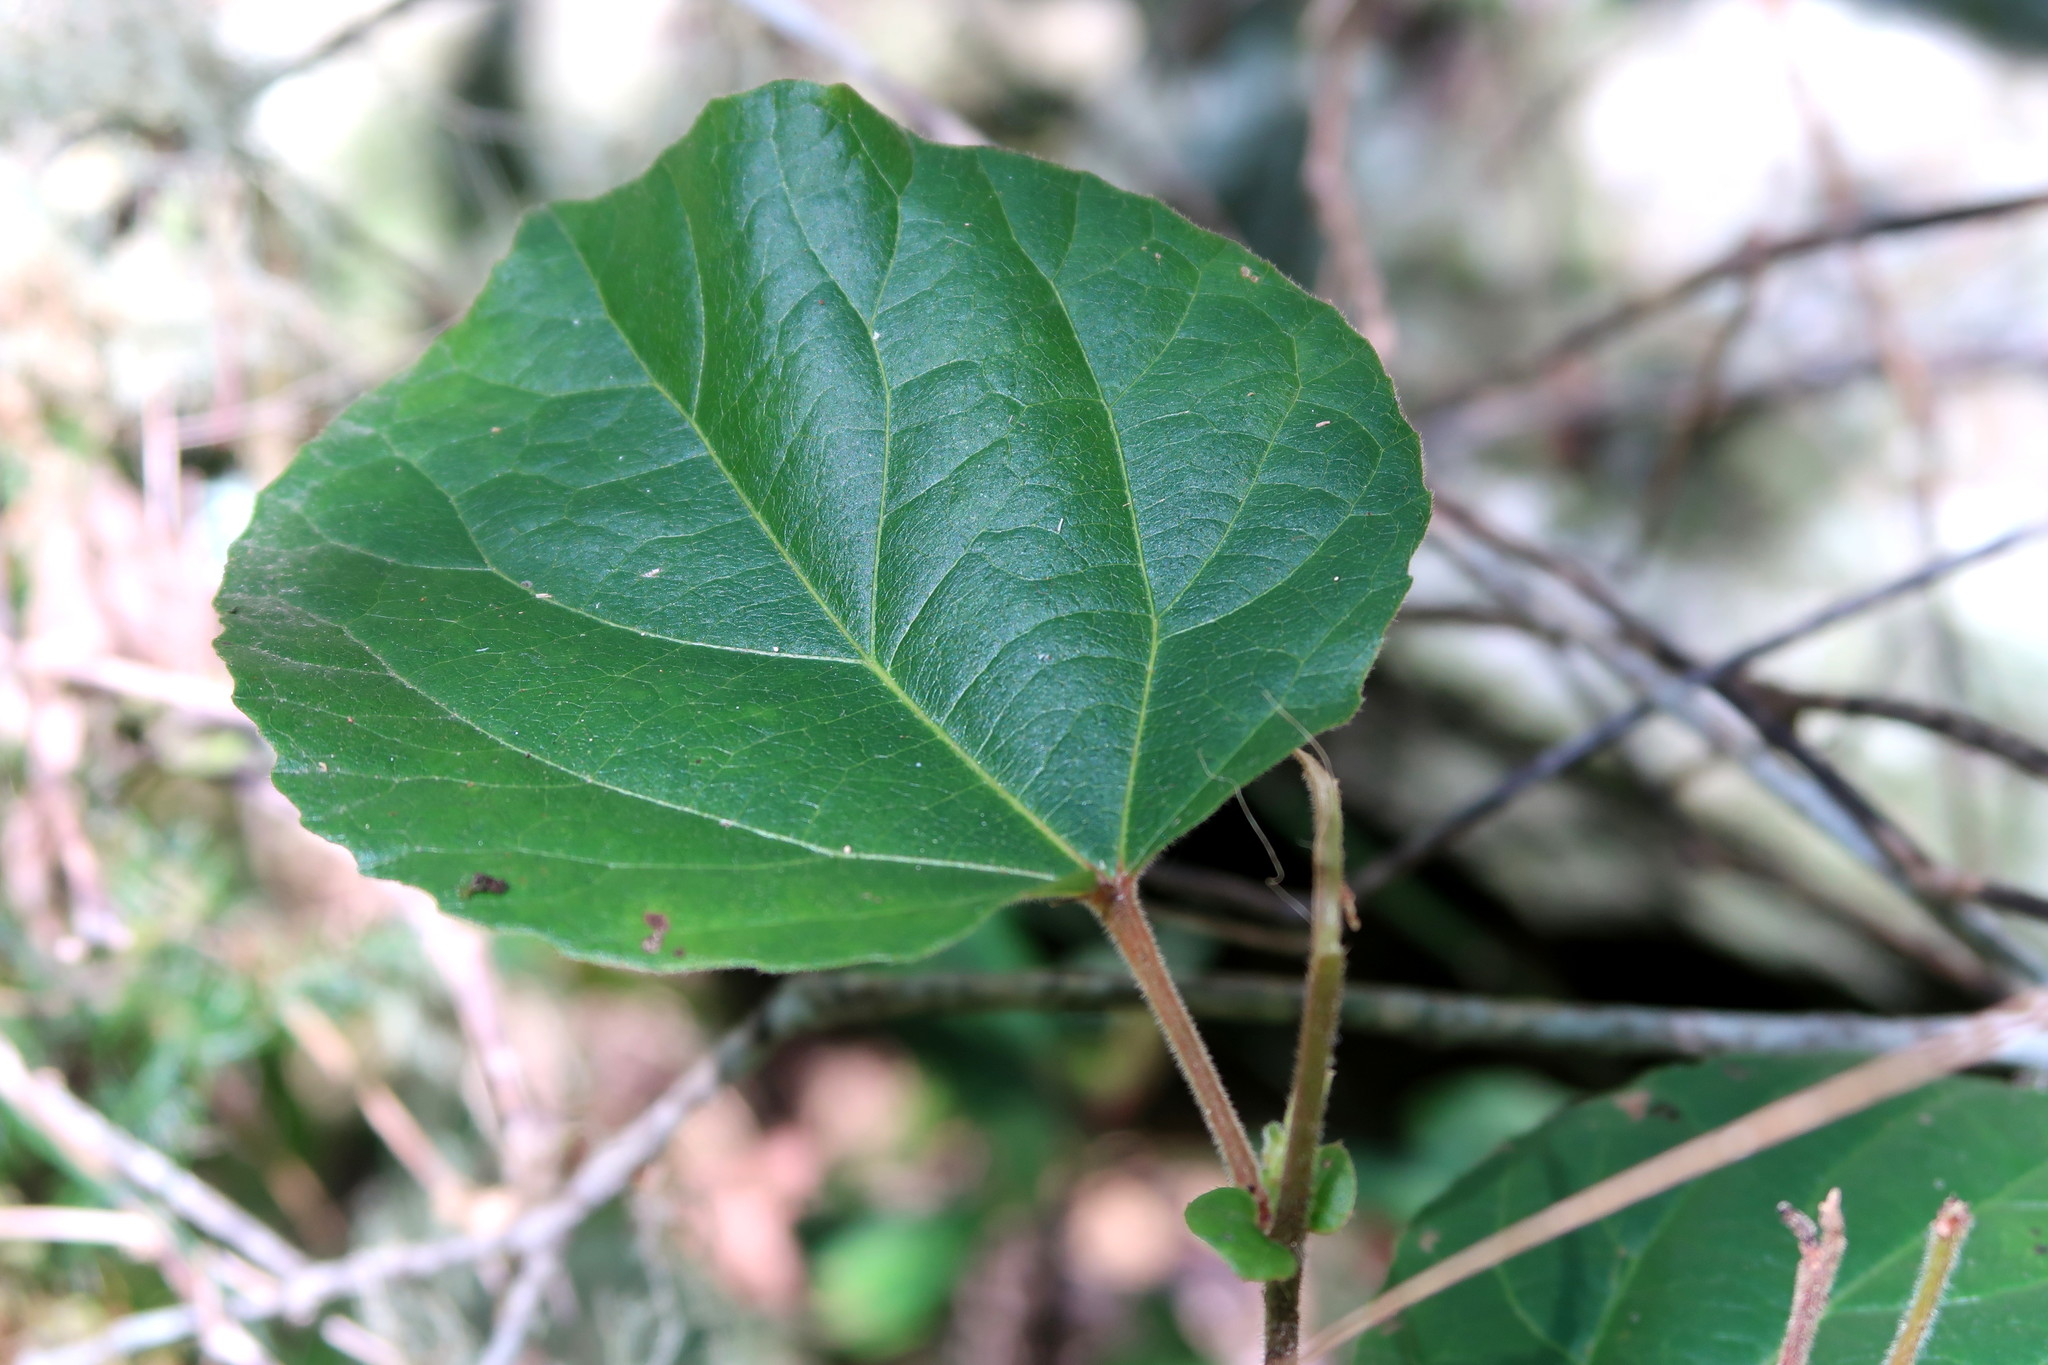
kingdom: Plantae
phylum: Tracheophyta
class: Magnoliopsida
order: Malpighiales
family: Salicaceae
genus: Trimeria
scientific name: Trimeria grandifolia
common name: Wild mulberry
